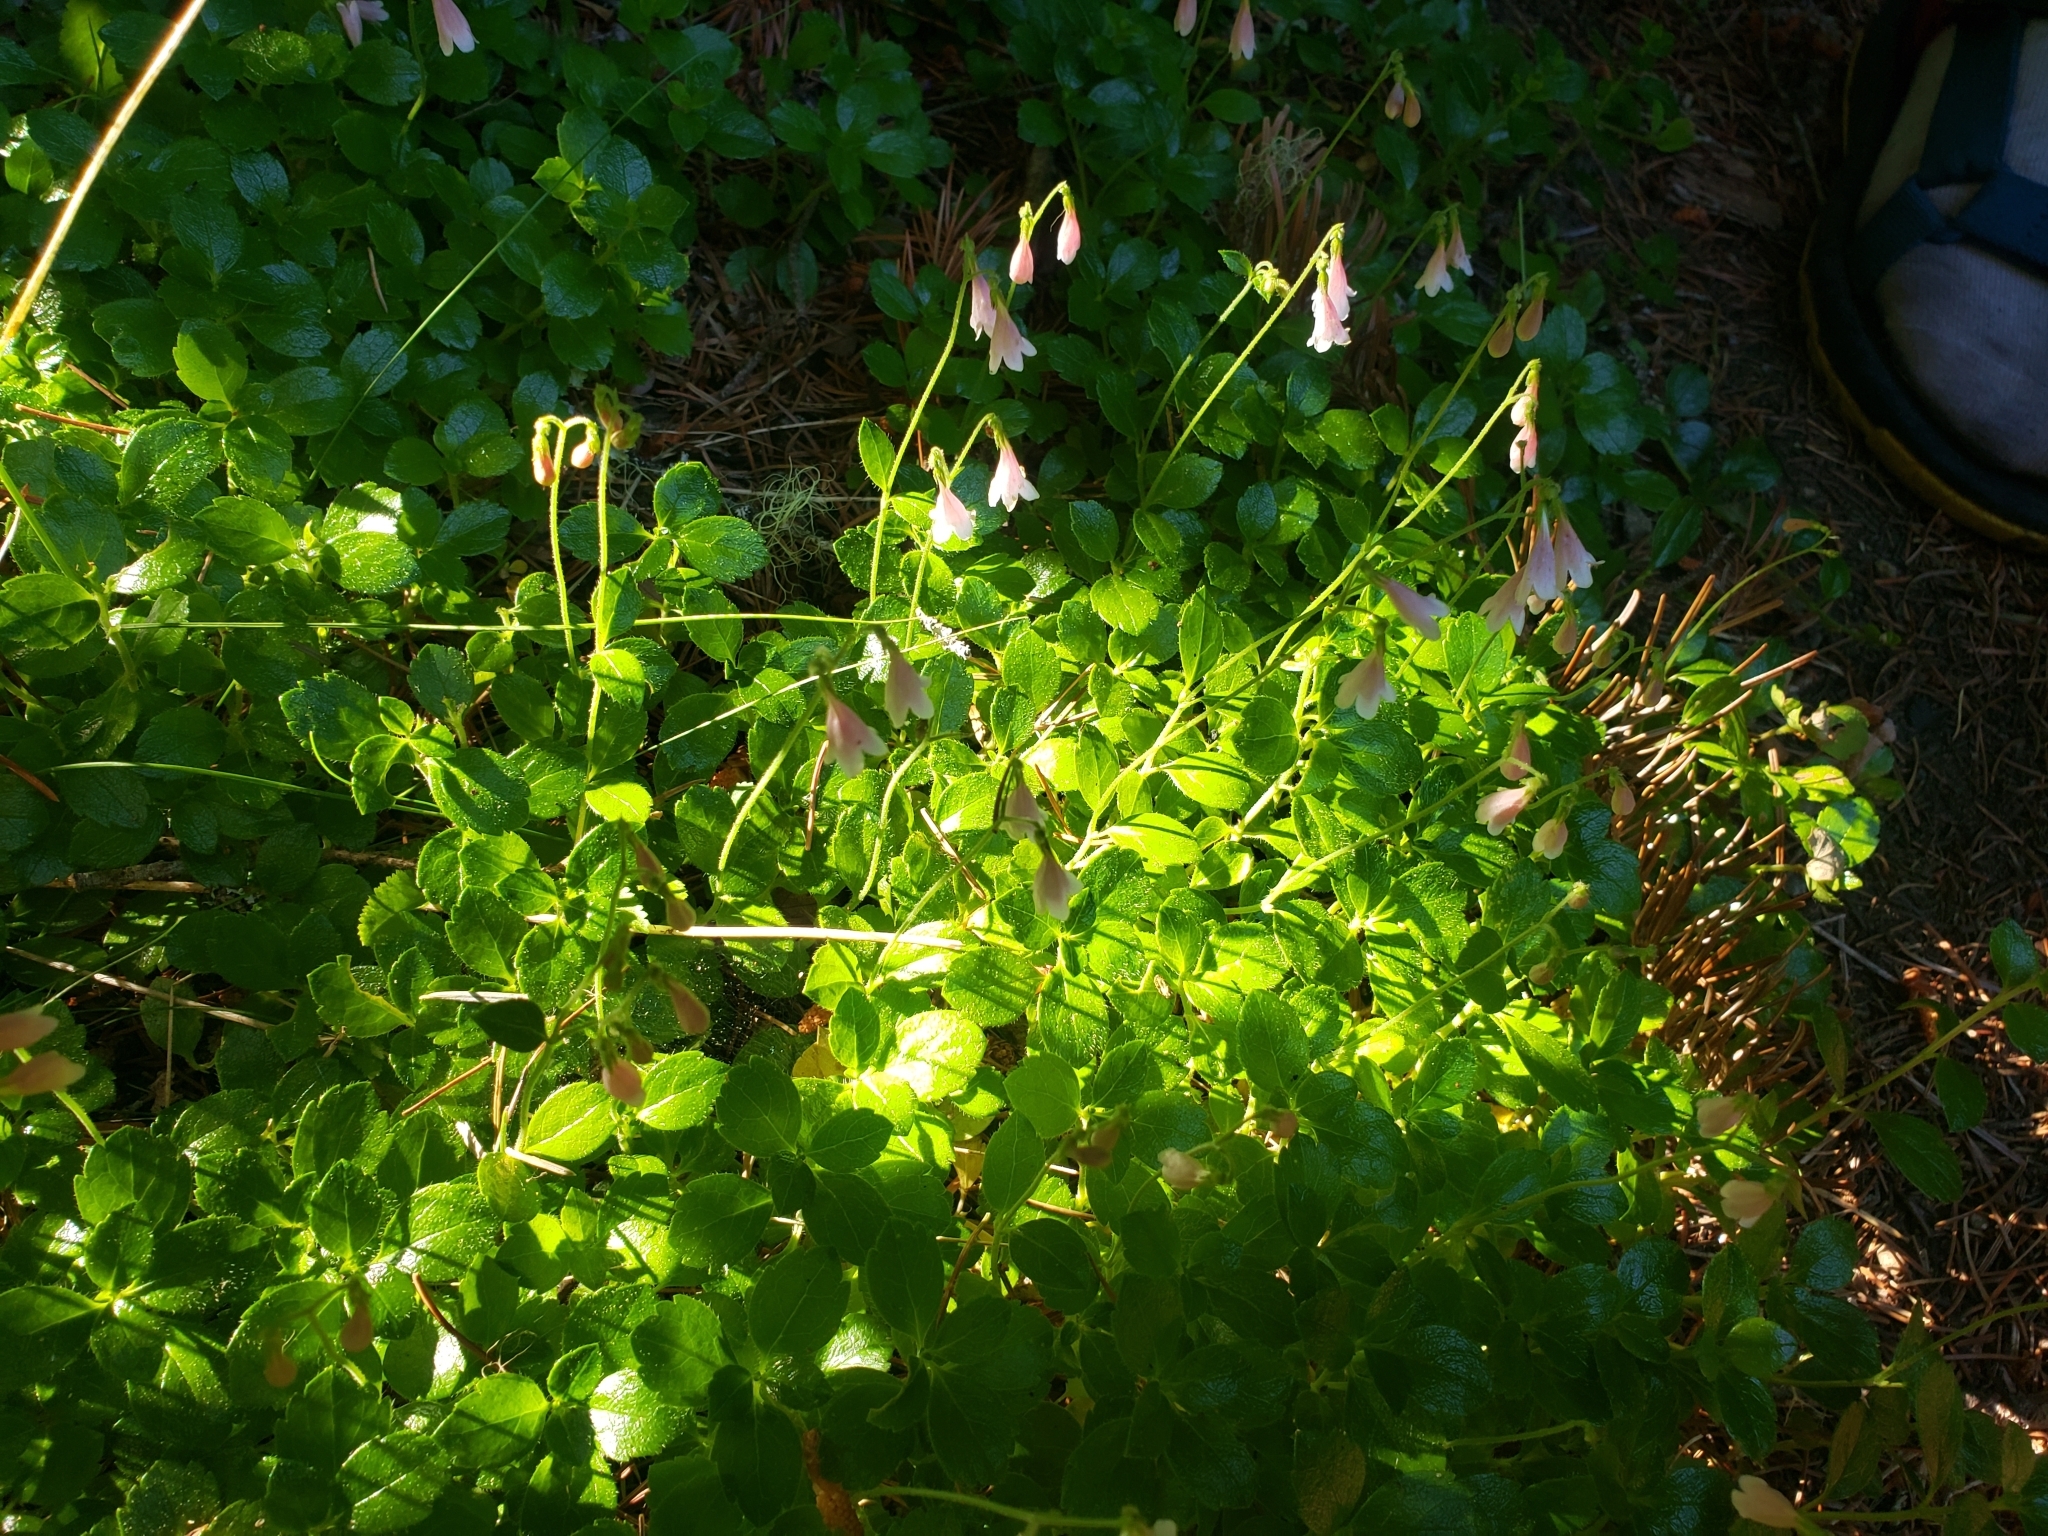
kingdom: Plantae
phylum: Tracheophyta
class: Magnoliopsida
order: Dipsacales
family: Caprifoliaceae
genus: Linnaea
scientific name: Linnaea borealis
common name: Twinflower
